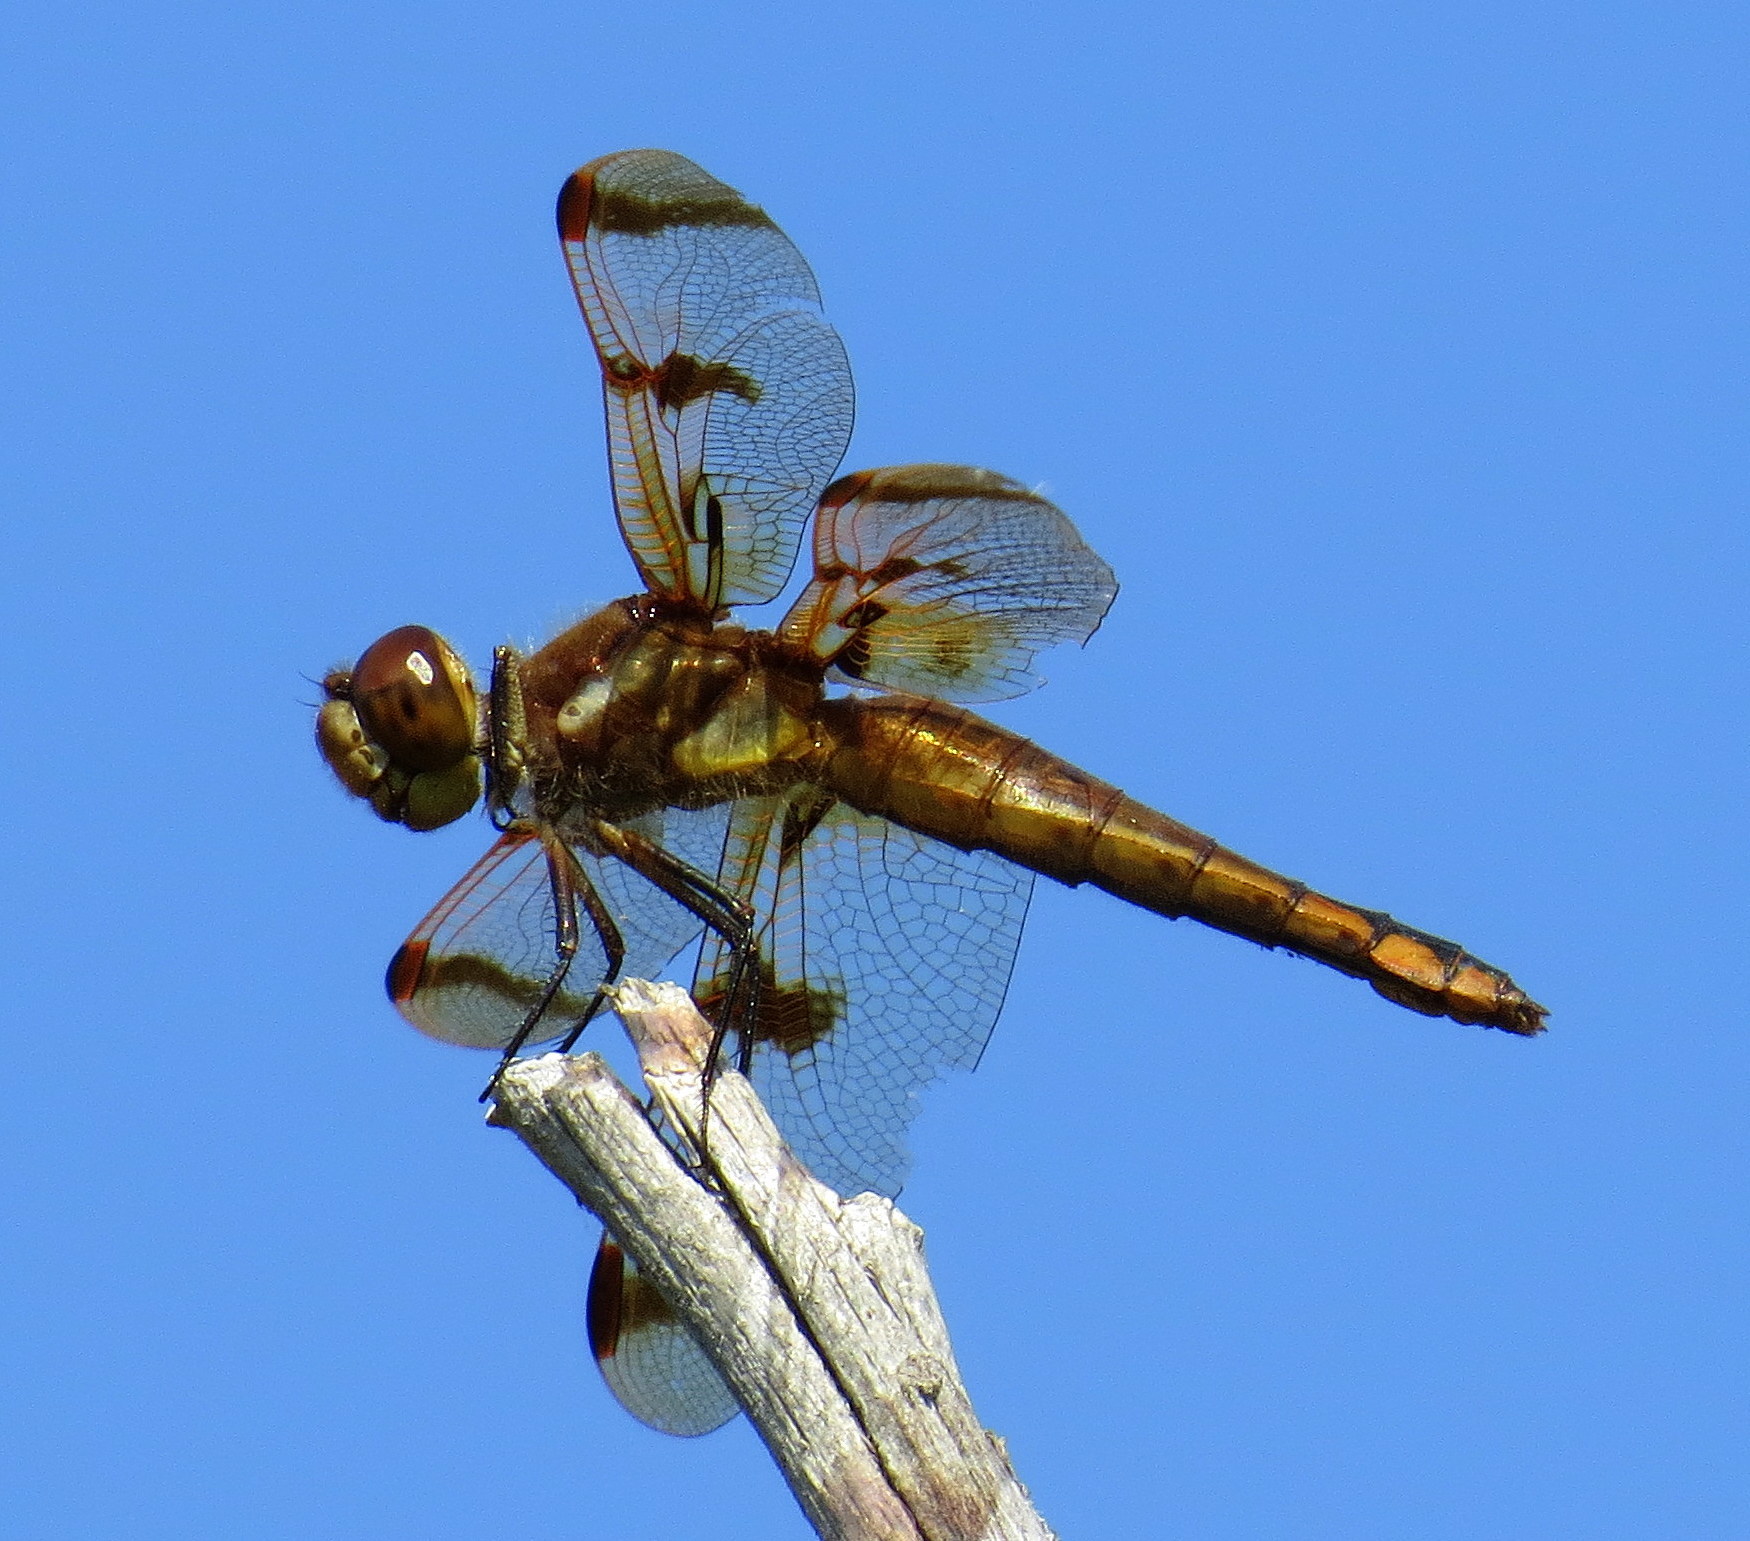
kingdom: Animalia
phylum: Arthropoda
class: Insecta
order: Odonata
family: Libellulidae
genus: Libellula
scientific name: Libellula semifasciata
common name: Painted skimmer
